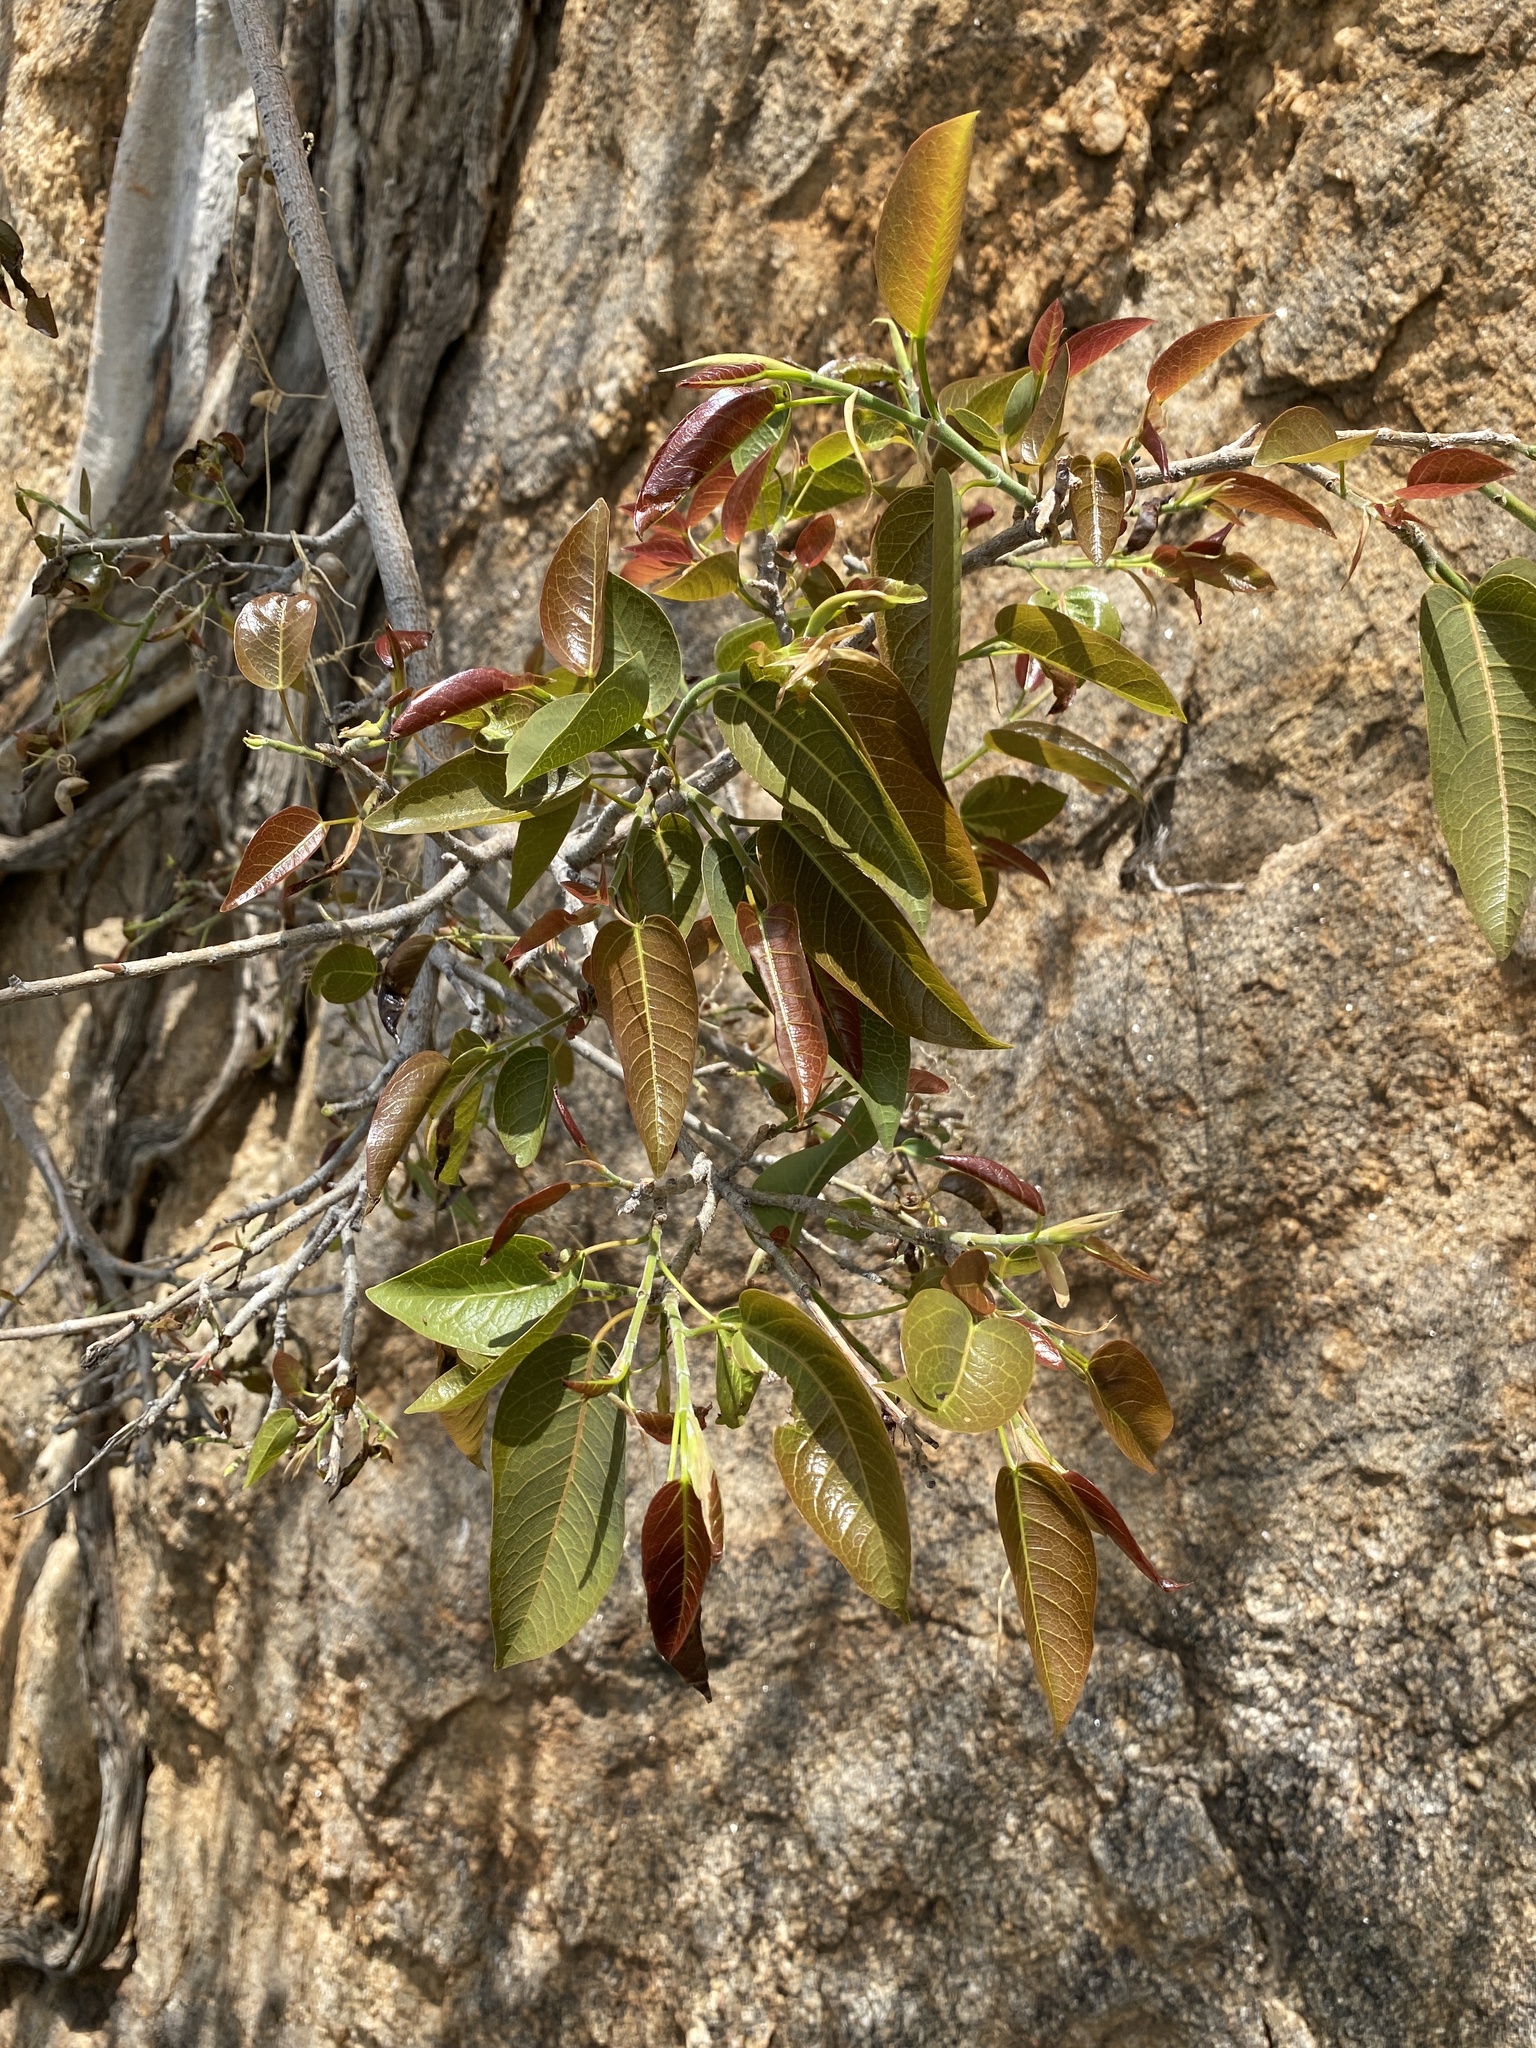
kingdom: Plantae
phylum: Tracheophyta
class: Magnoliopsida
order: Rosales
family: Moraceae
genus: Ficus
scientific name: Ficus cordata
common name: Namaqua rock fig
